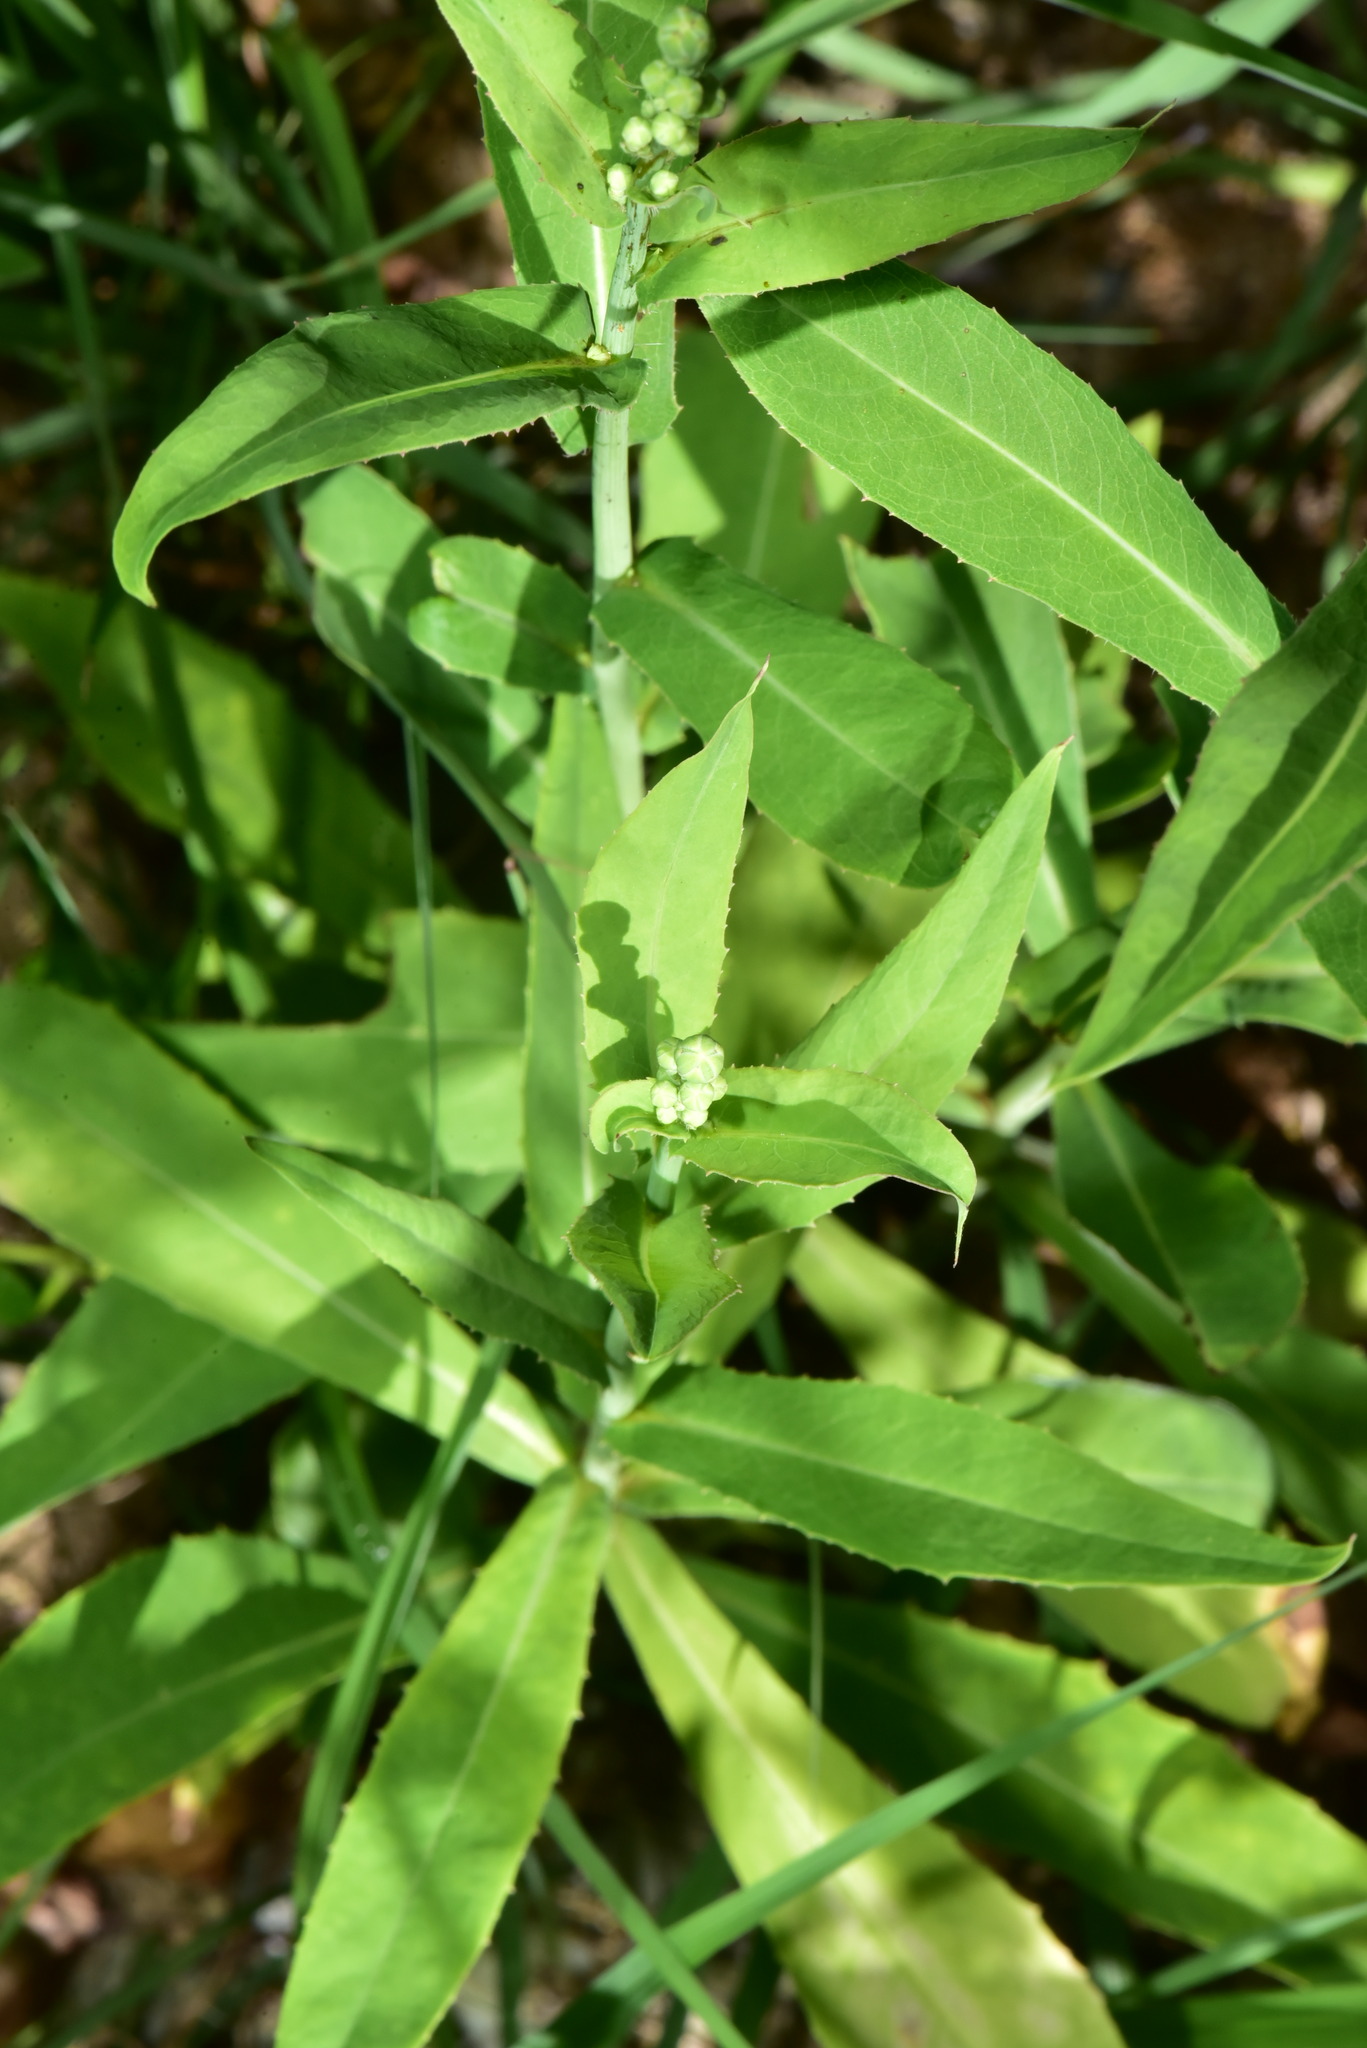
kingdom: Plantae
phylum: Tracheophyta
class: Magnoliopsida
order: Solanales
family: Sphenocleaceae
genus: Sphenoclea
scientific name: Sphenoclea zeylanica
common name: Chickenspike
